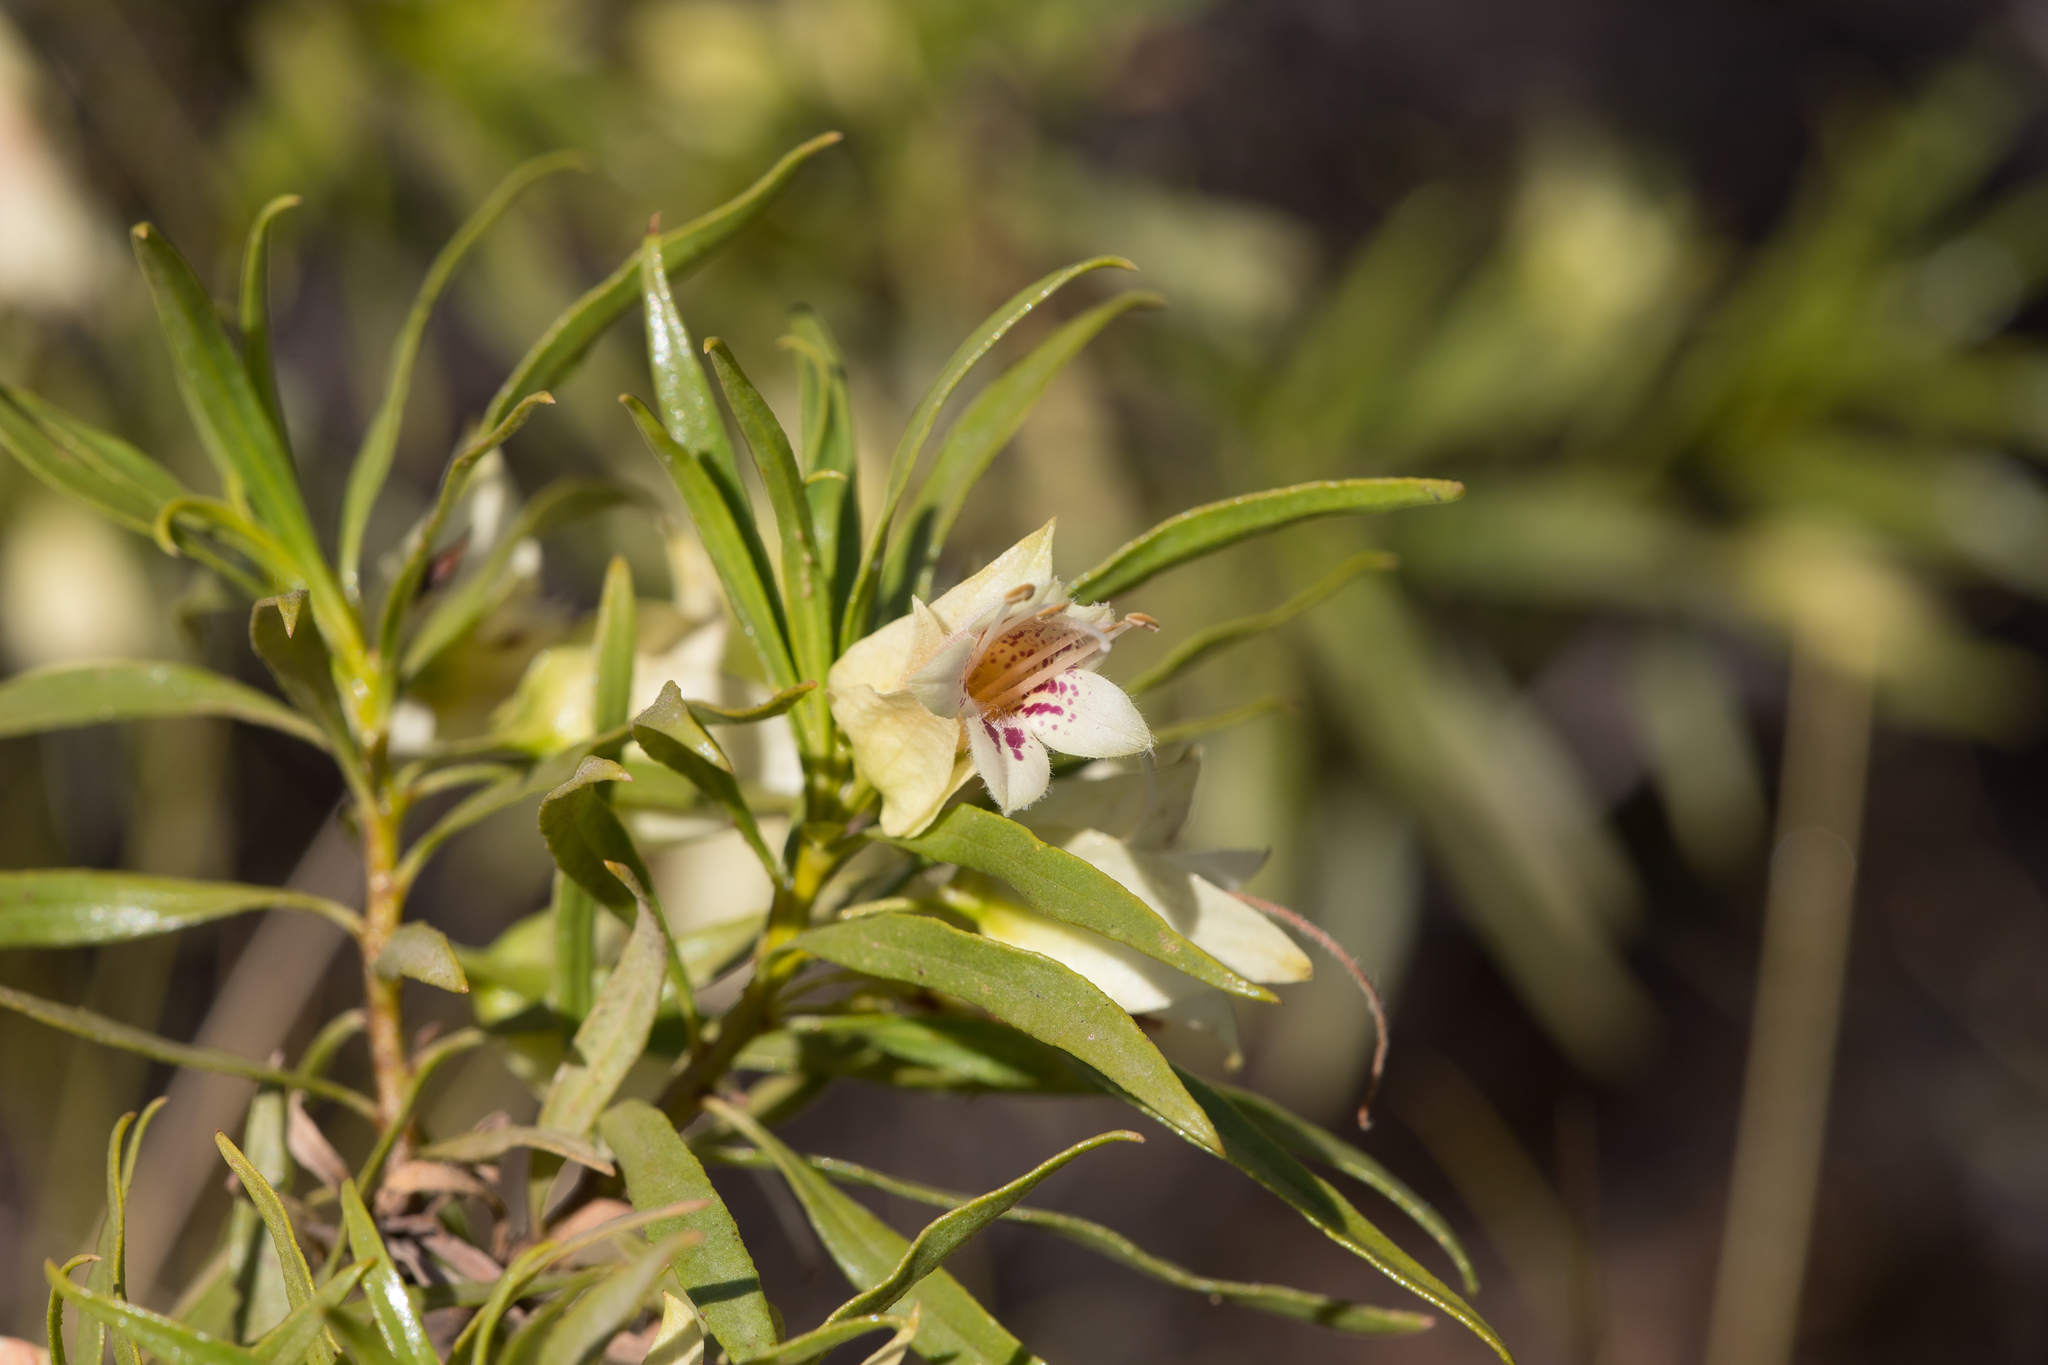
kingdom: Plantae
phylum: Tracheophyta
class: Magnoliopsida
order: Lamiales
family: Scrophulariaceae
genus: Eremophila
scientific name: Eremophila alatisepala
